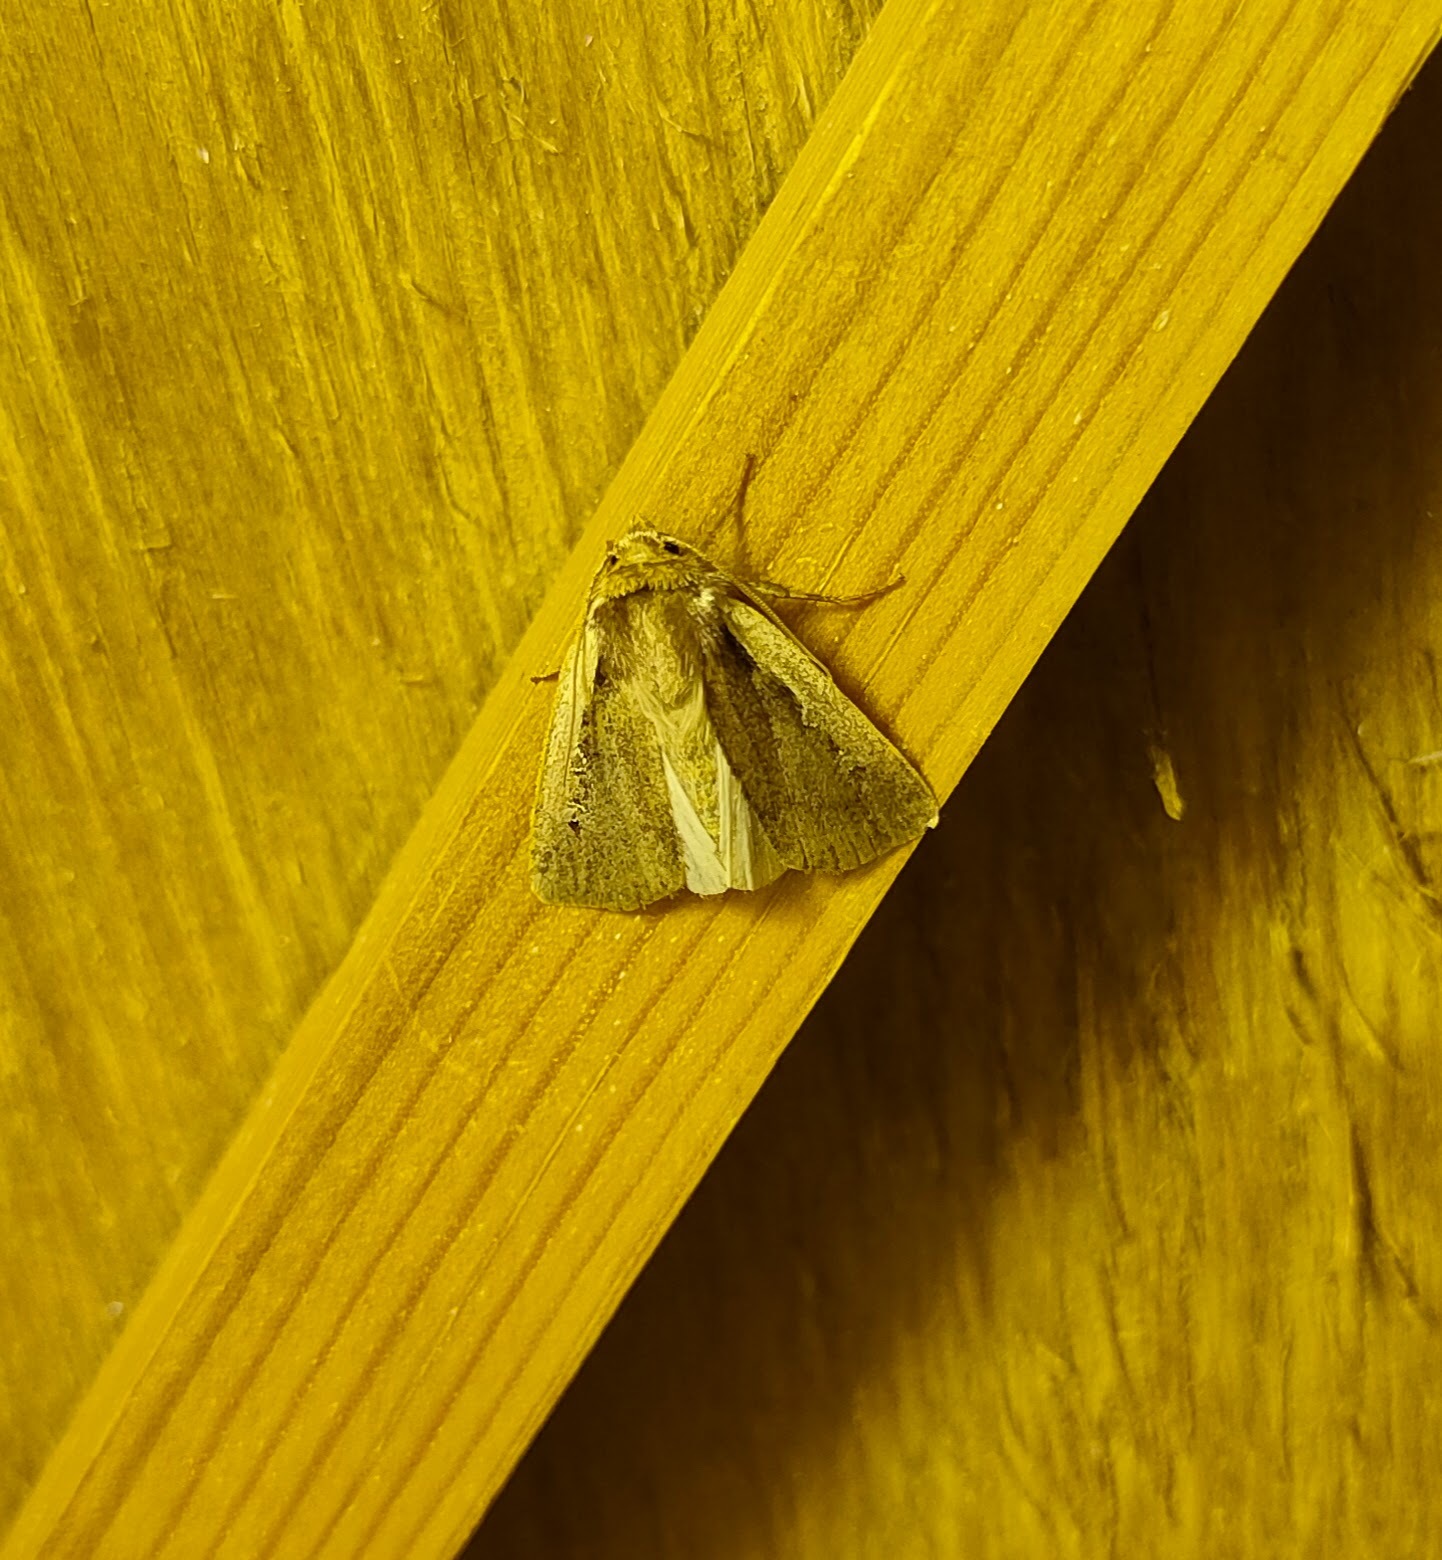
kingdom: Animalia
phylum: Arthropoda
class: Insecta
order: Lepidoptera
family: Noctuidae
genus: Ochropleura
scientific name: Ochropleura plecta
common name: Flame shoulder
